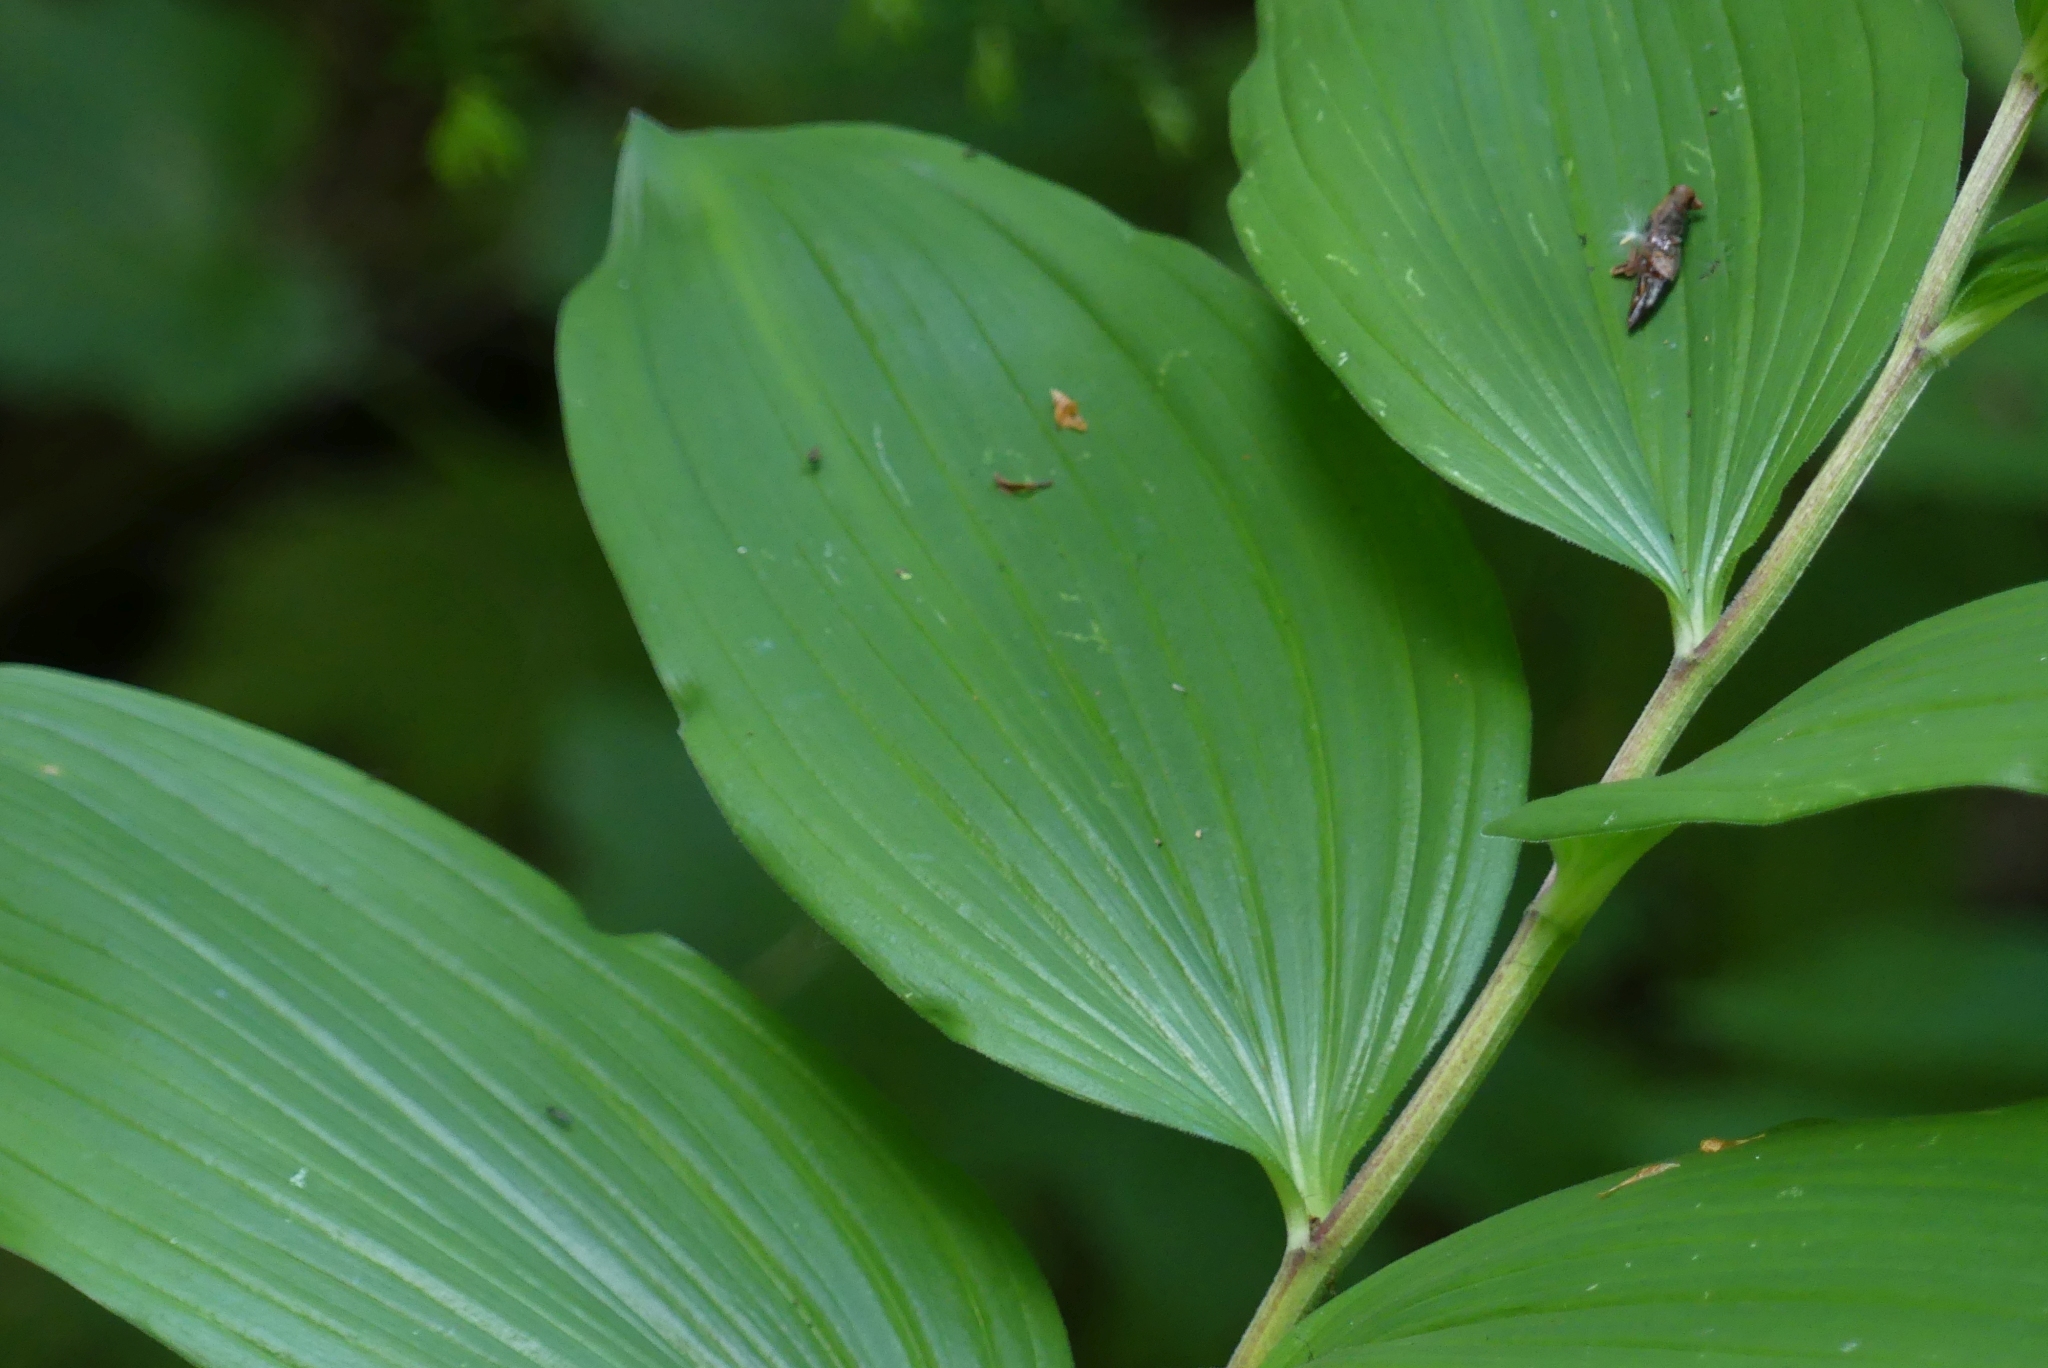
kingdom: Plantae
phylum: Tracheophyta
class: Liliopsida
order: Asparagales
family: Asparagaceae
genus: Maianthemum
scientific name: Maianthemum racemosum
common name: False spikenard
